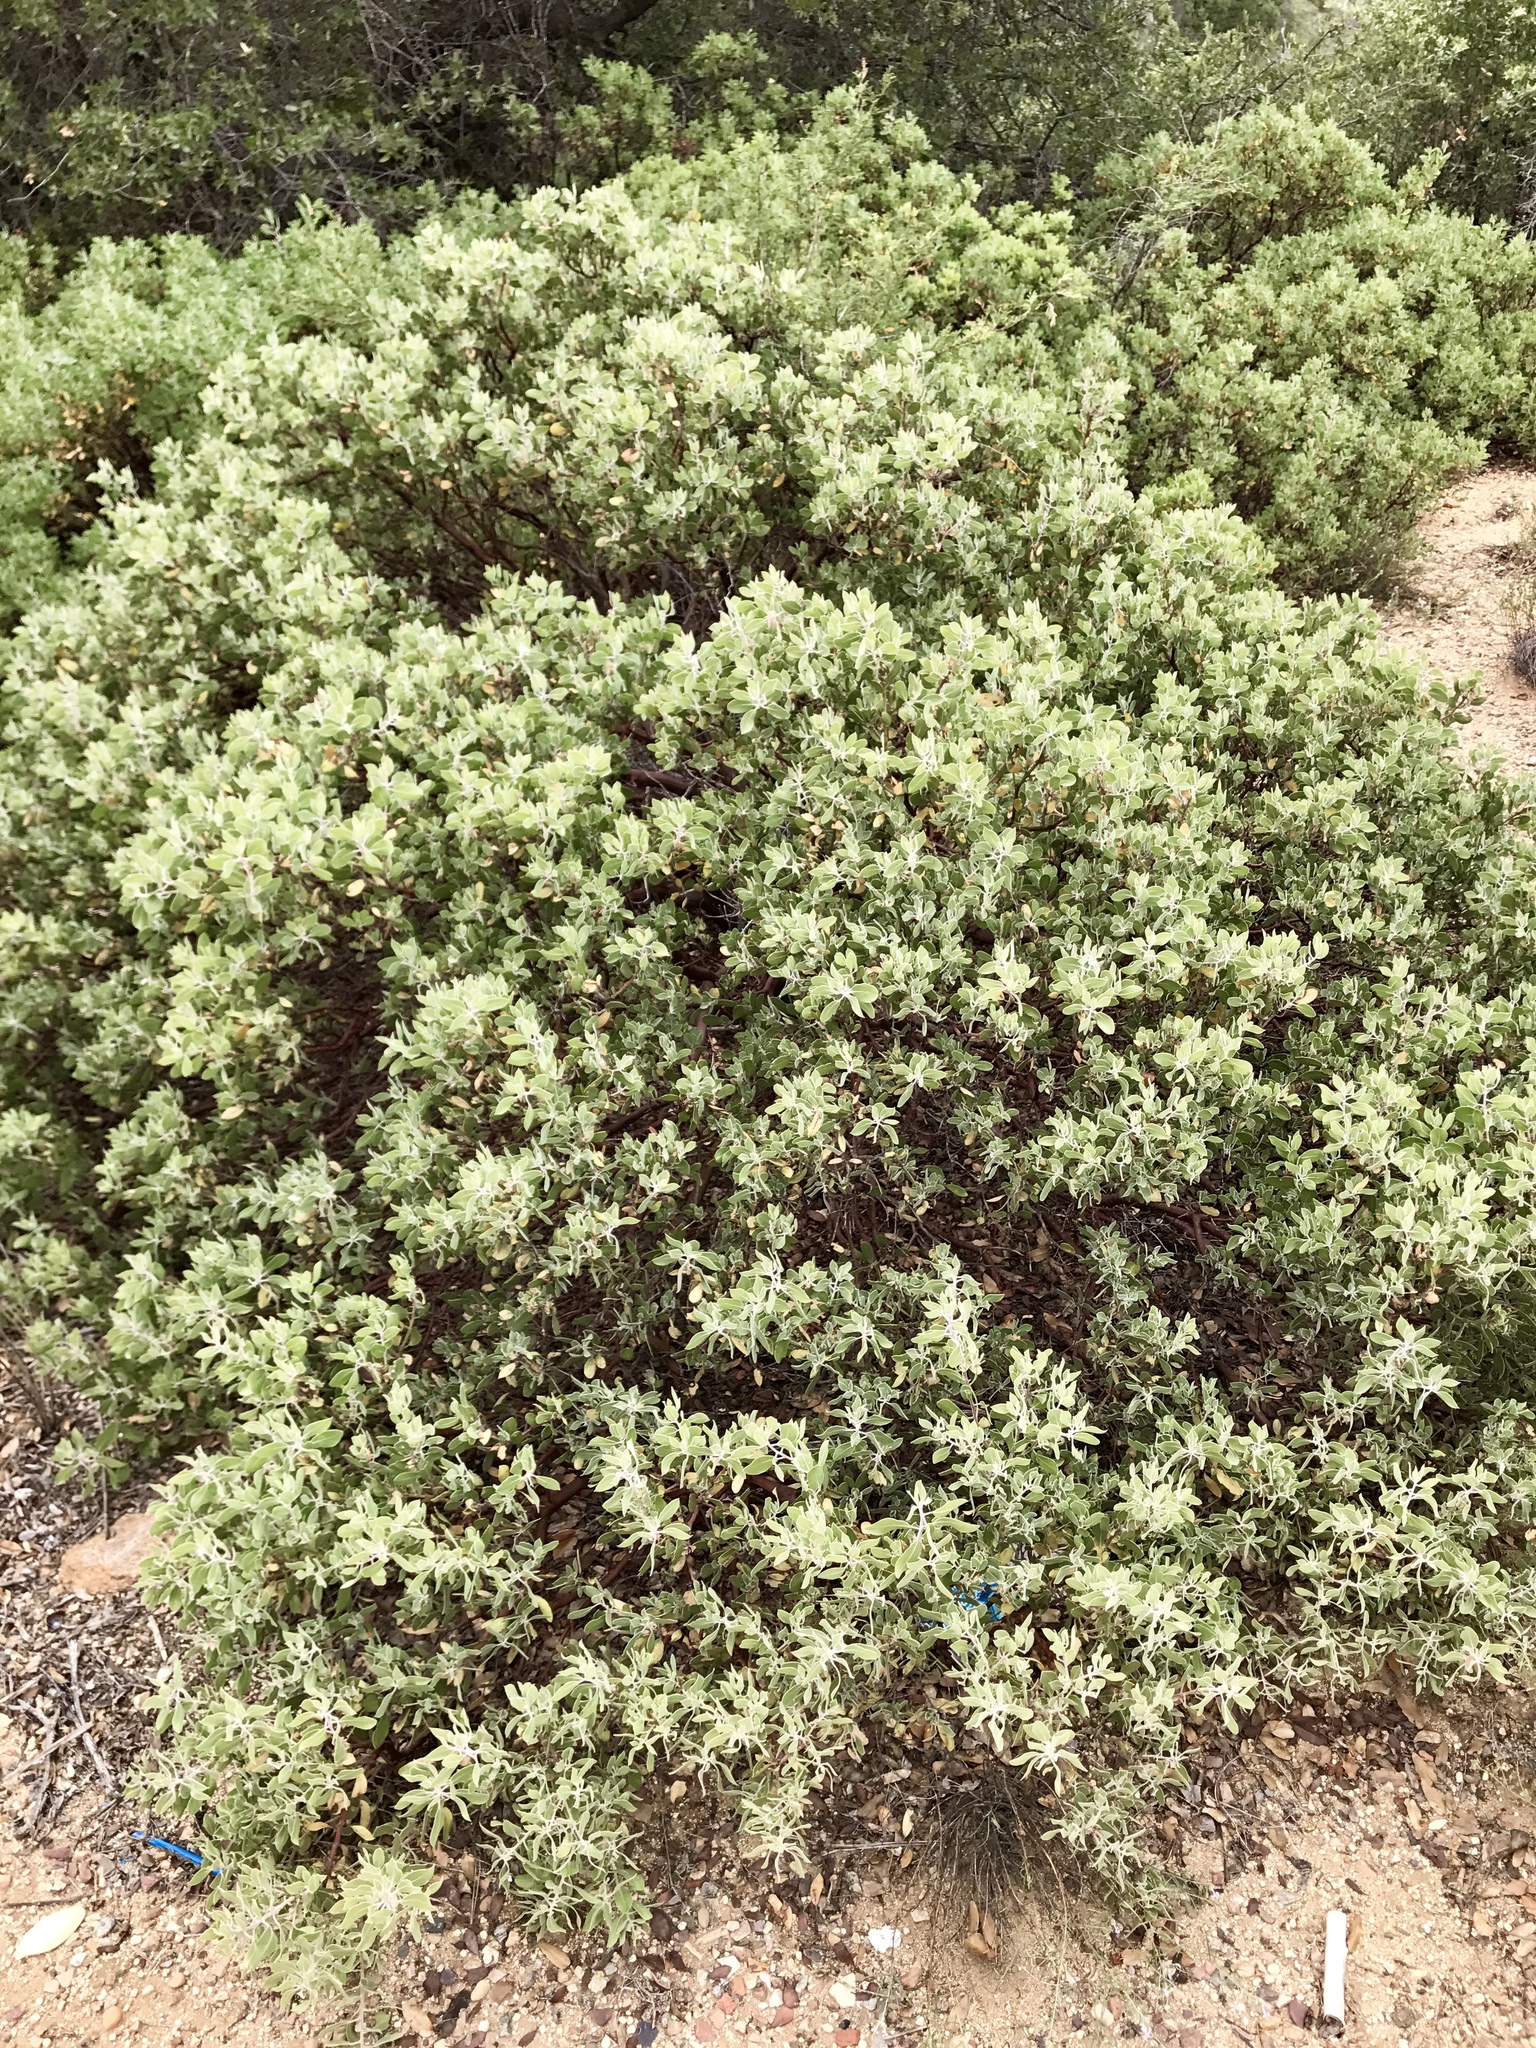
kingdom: Plantae
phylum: Tracheophyta
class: Magnoliopsida
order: Ericales
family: Ericaceae
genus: Arctostaphylos
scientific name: Arctostaphylos pungens
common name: Mexican manzanita
